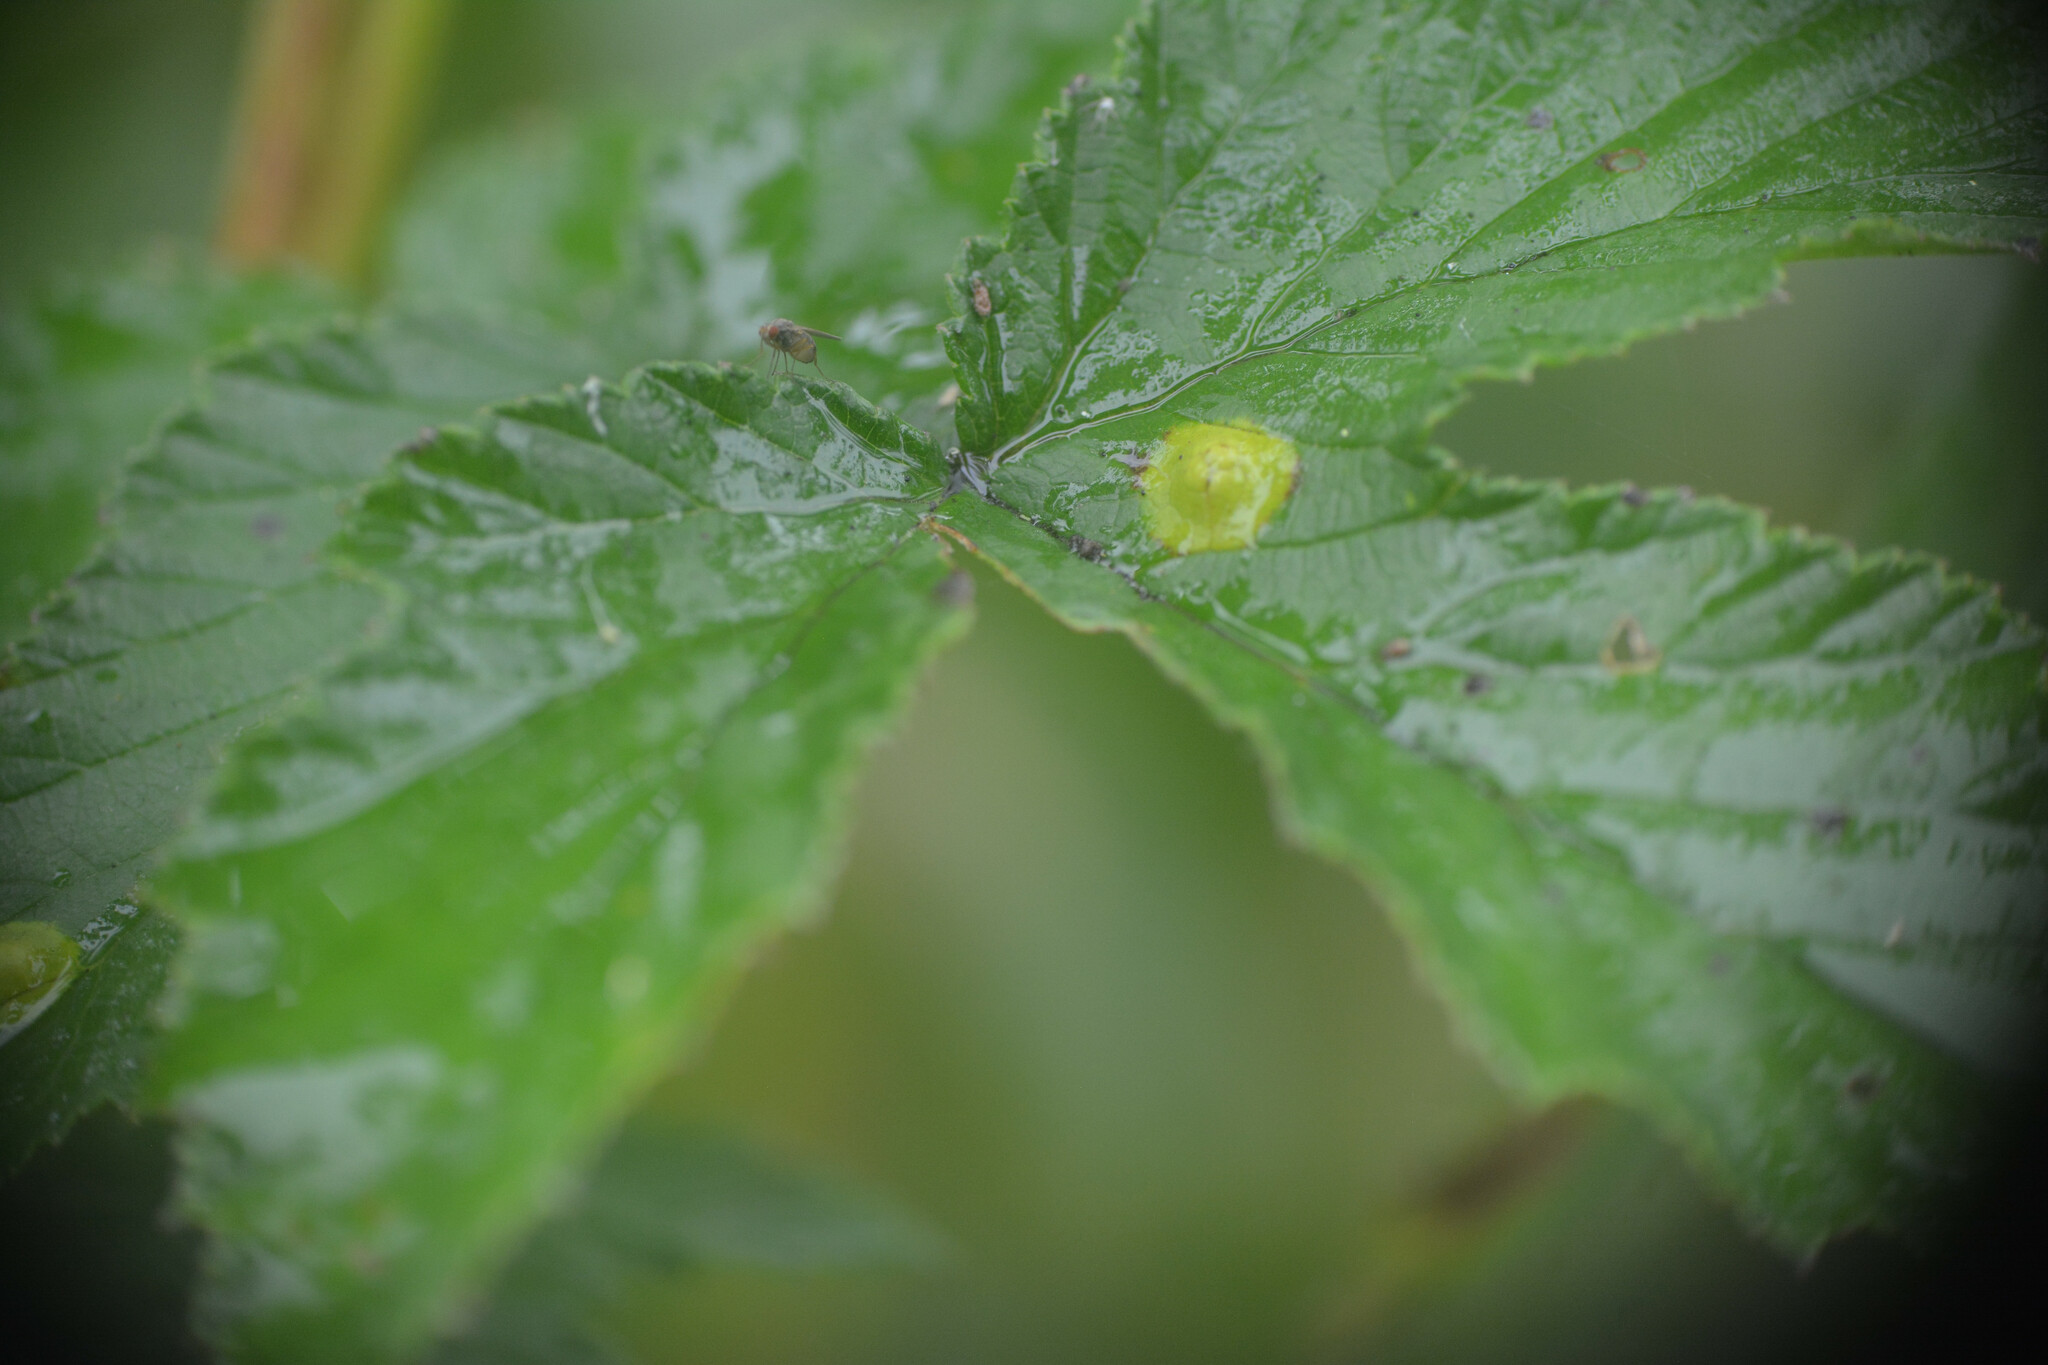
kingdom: Animalia
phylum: Arthropoda
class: Insecta
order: Diptera
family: Cecidomyiidae
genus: Dasineura
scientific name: Dasineura pustulans
